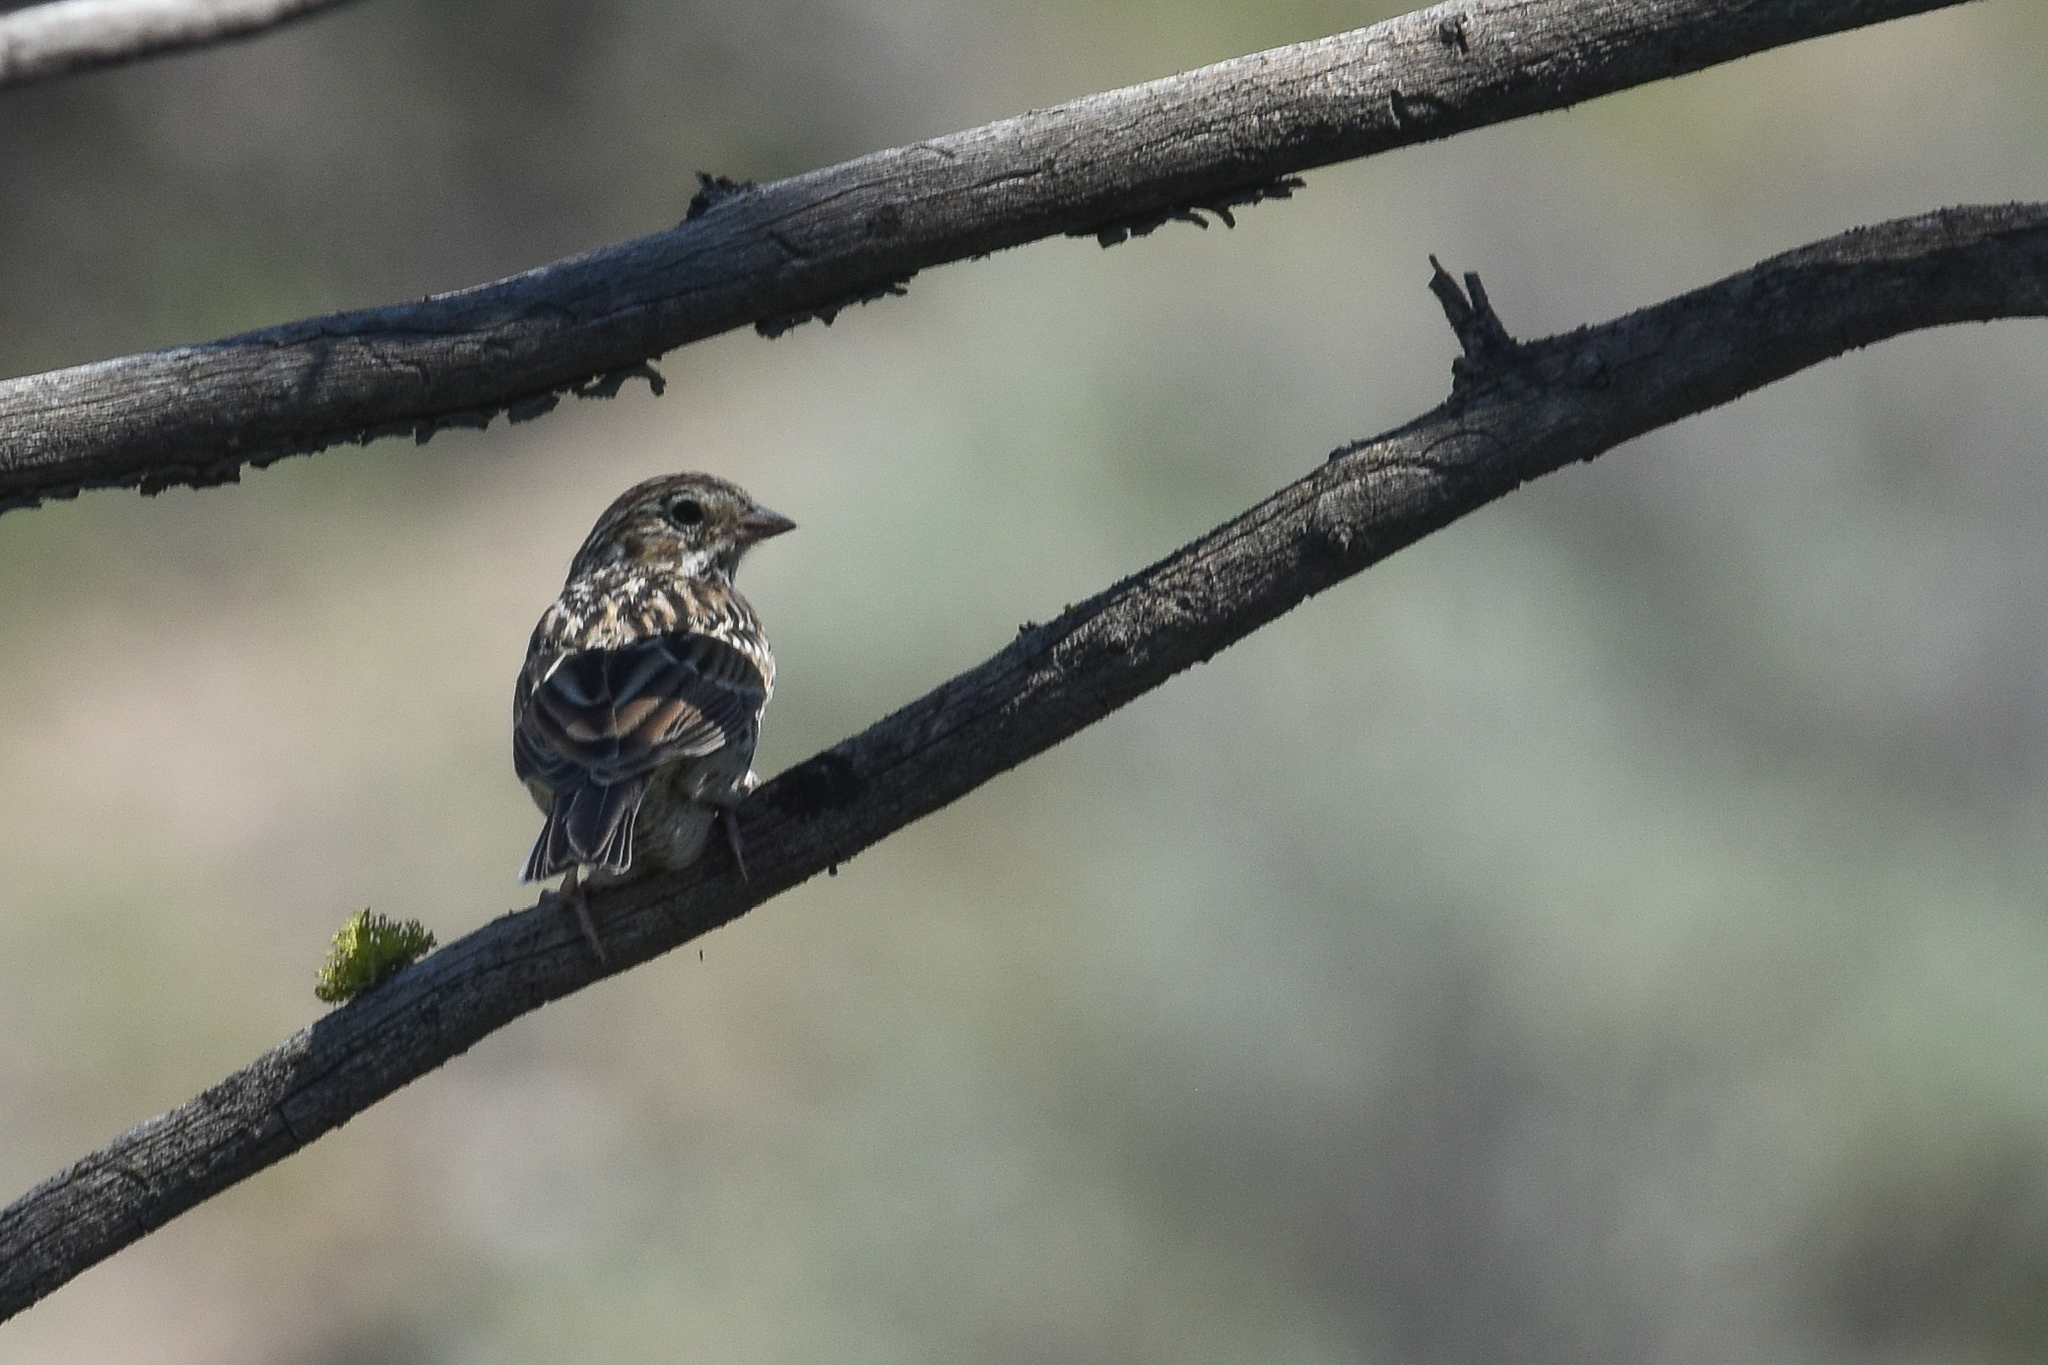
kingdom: Animalia
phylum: Chordata
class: Aves
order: Passeriformes
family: Passerellidae
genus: Pooecetes
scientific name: Pooecetes gramineus
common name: Vesper sparrow
